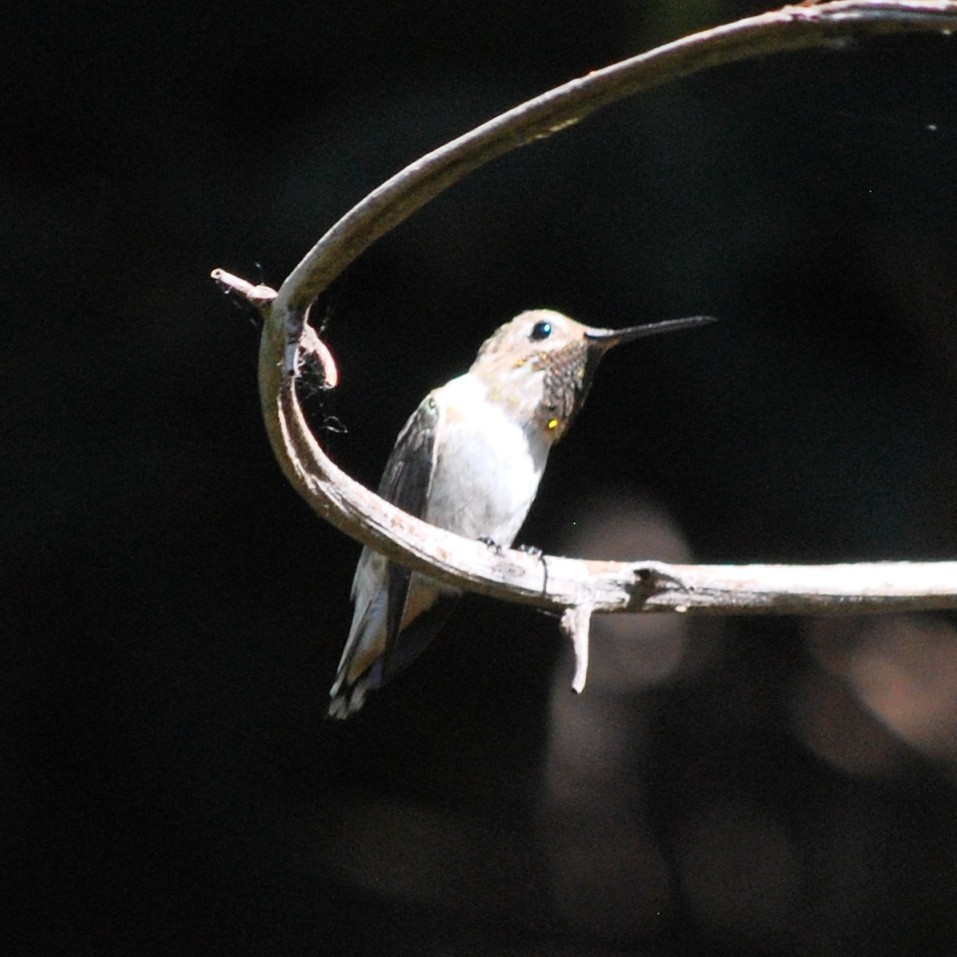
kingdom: Animalia
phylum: Chordata
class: Aves
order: Apodiformes
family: Trochilidae
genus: Selasphorus
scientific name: Selasphorus sasin
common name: Allen's hummingbird
